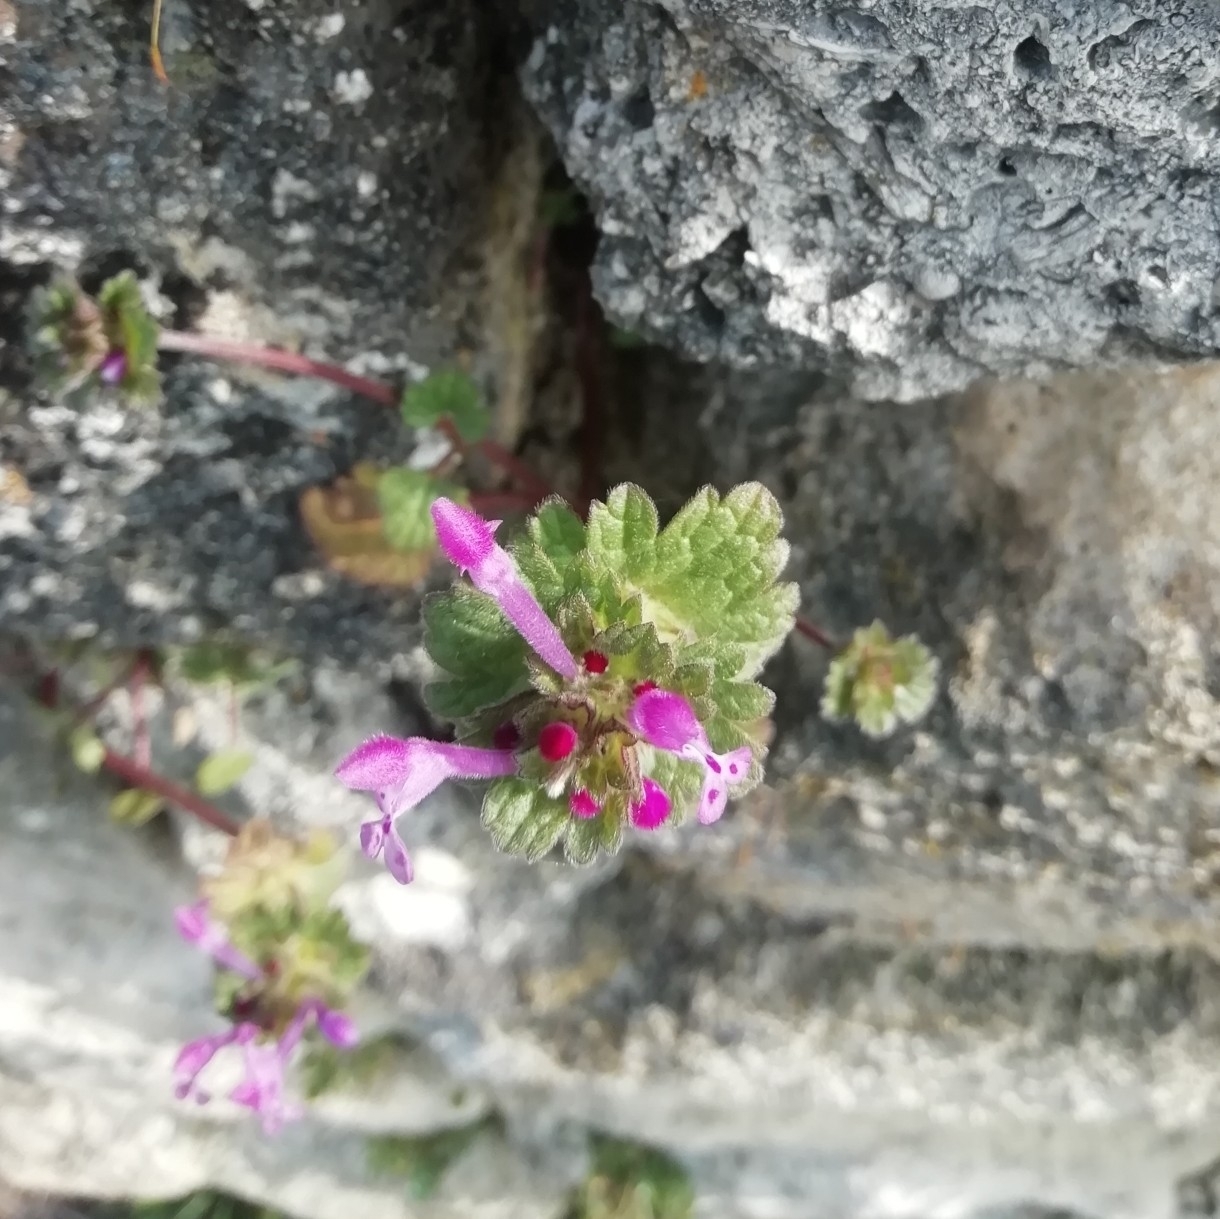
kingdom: Plantae
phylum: Tracheophyta
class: Magnoliopsida
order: Lamiales
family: Lamiaceae
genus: Lamium
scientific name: Lamium amplexicaule
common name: Henbit dead-nettle
